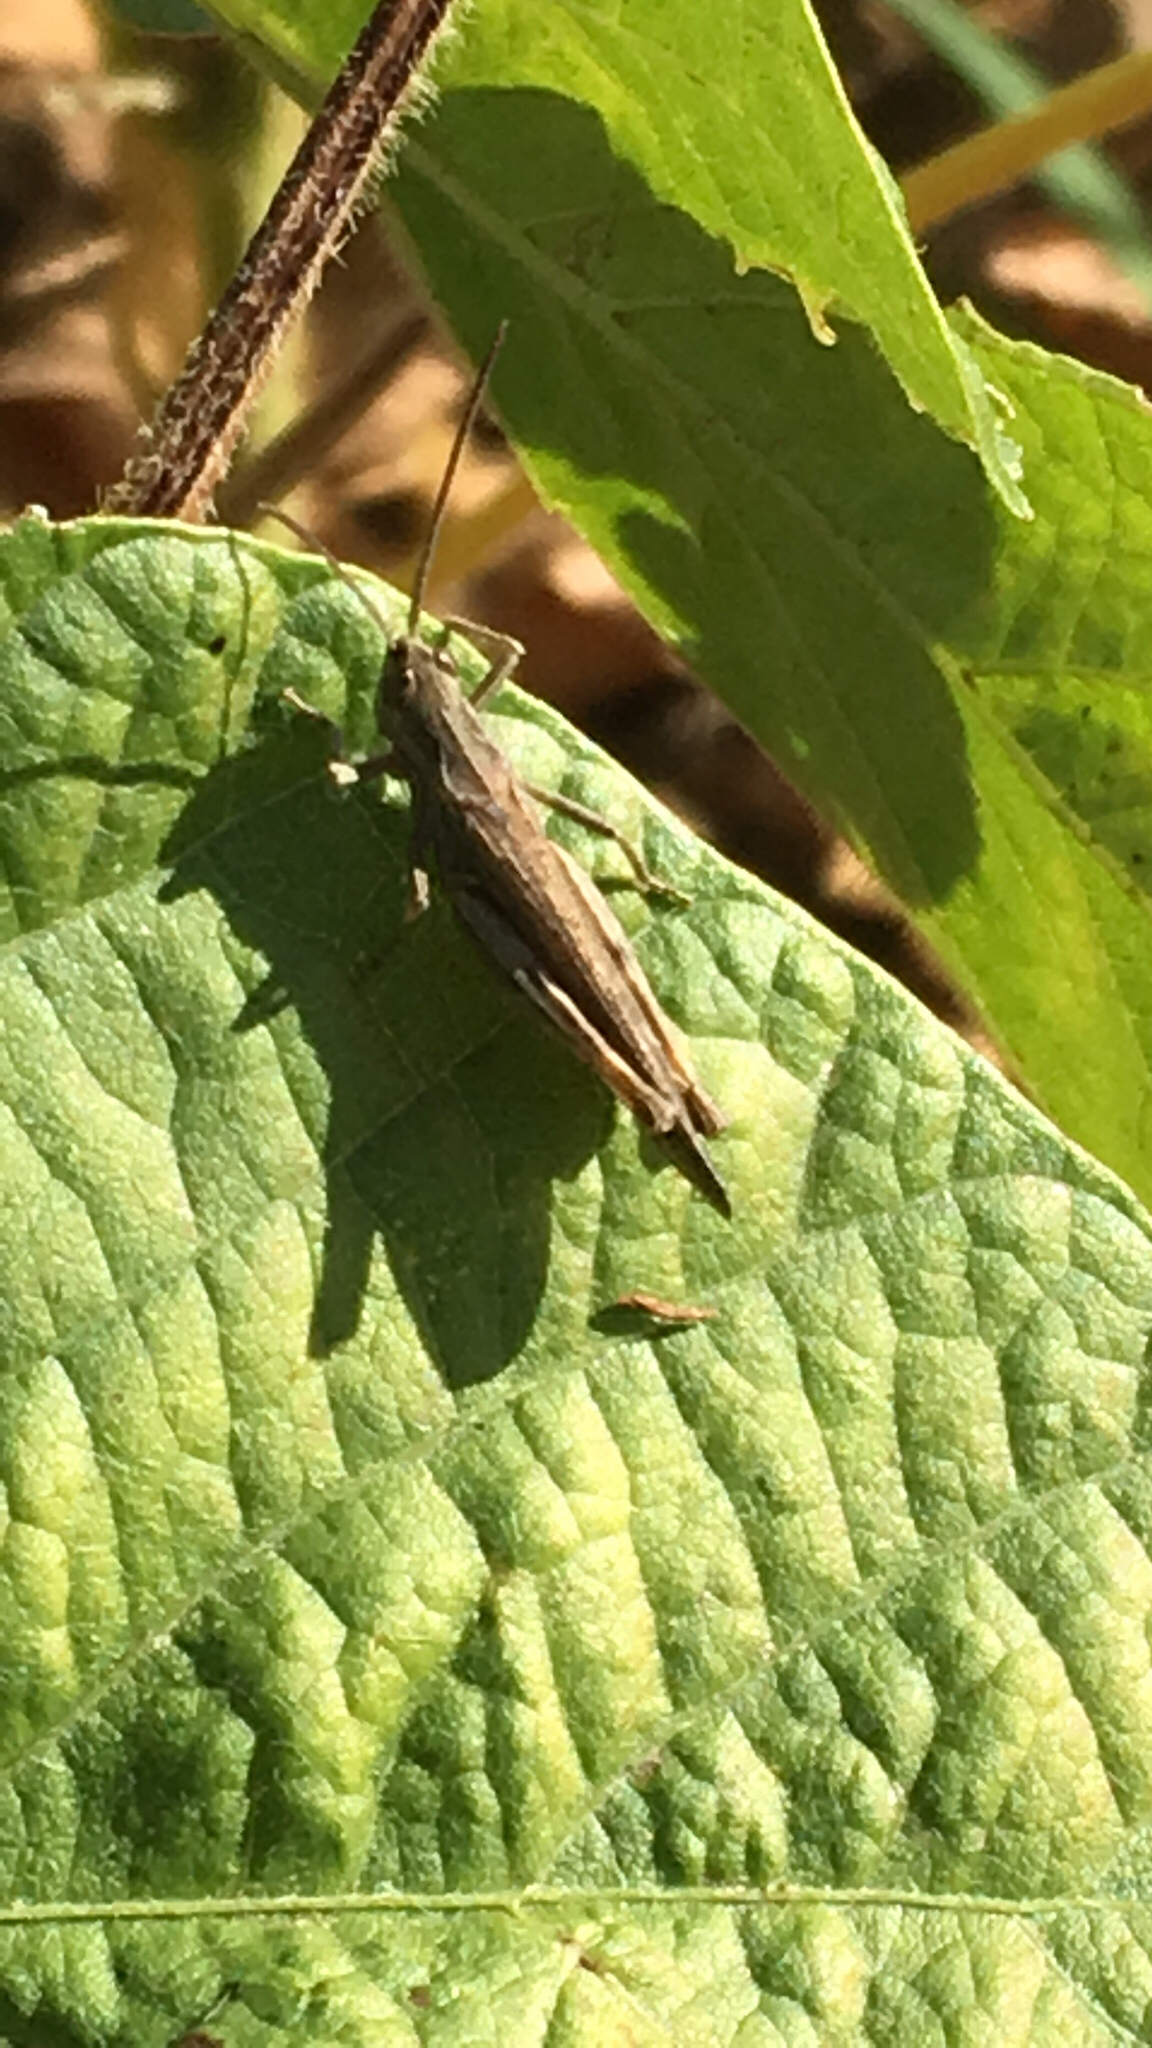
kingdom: Animalia
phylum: Arthropoda
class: Insecta
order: Orthoptera
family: Acrididae
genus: Chorthippus
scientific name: Chorthippus brunneus
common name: Field grasshopper
